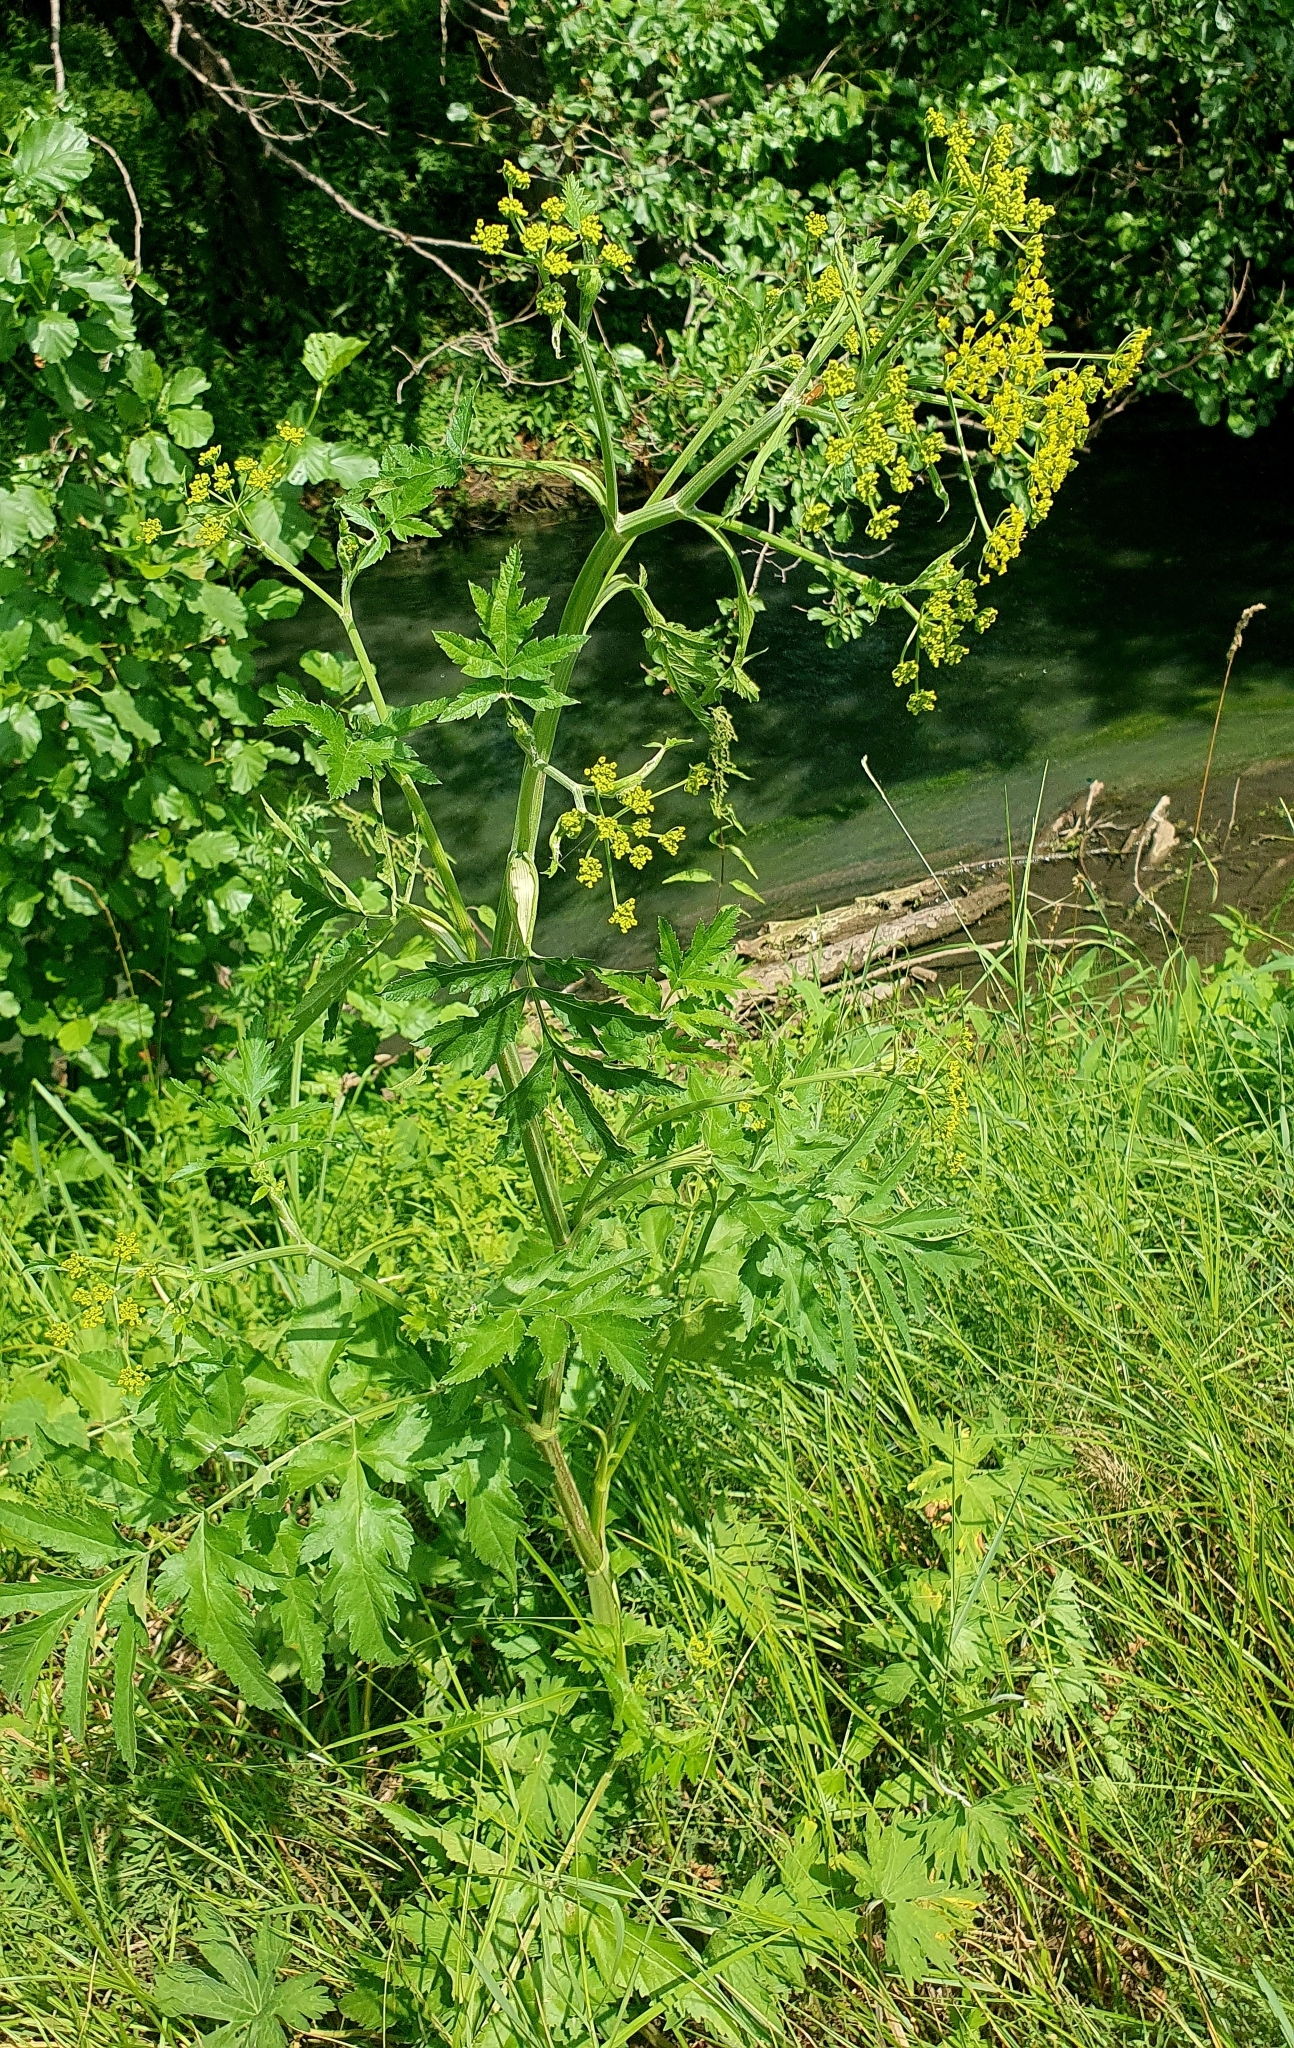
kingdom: Plantae
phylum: Tracheophyta
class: Magnoliopsida
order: Apiales
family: Apiaceae
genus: Pastinaca
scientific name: Pastinaca sativa
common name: Wild parsnip
